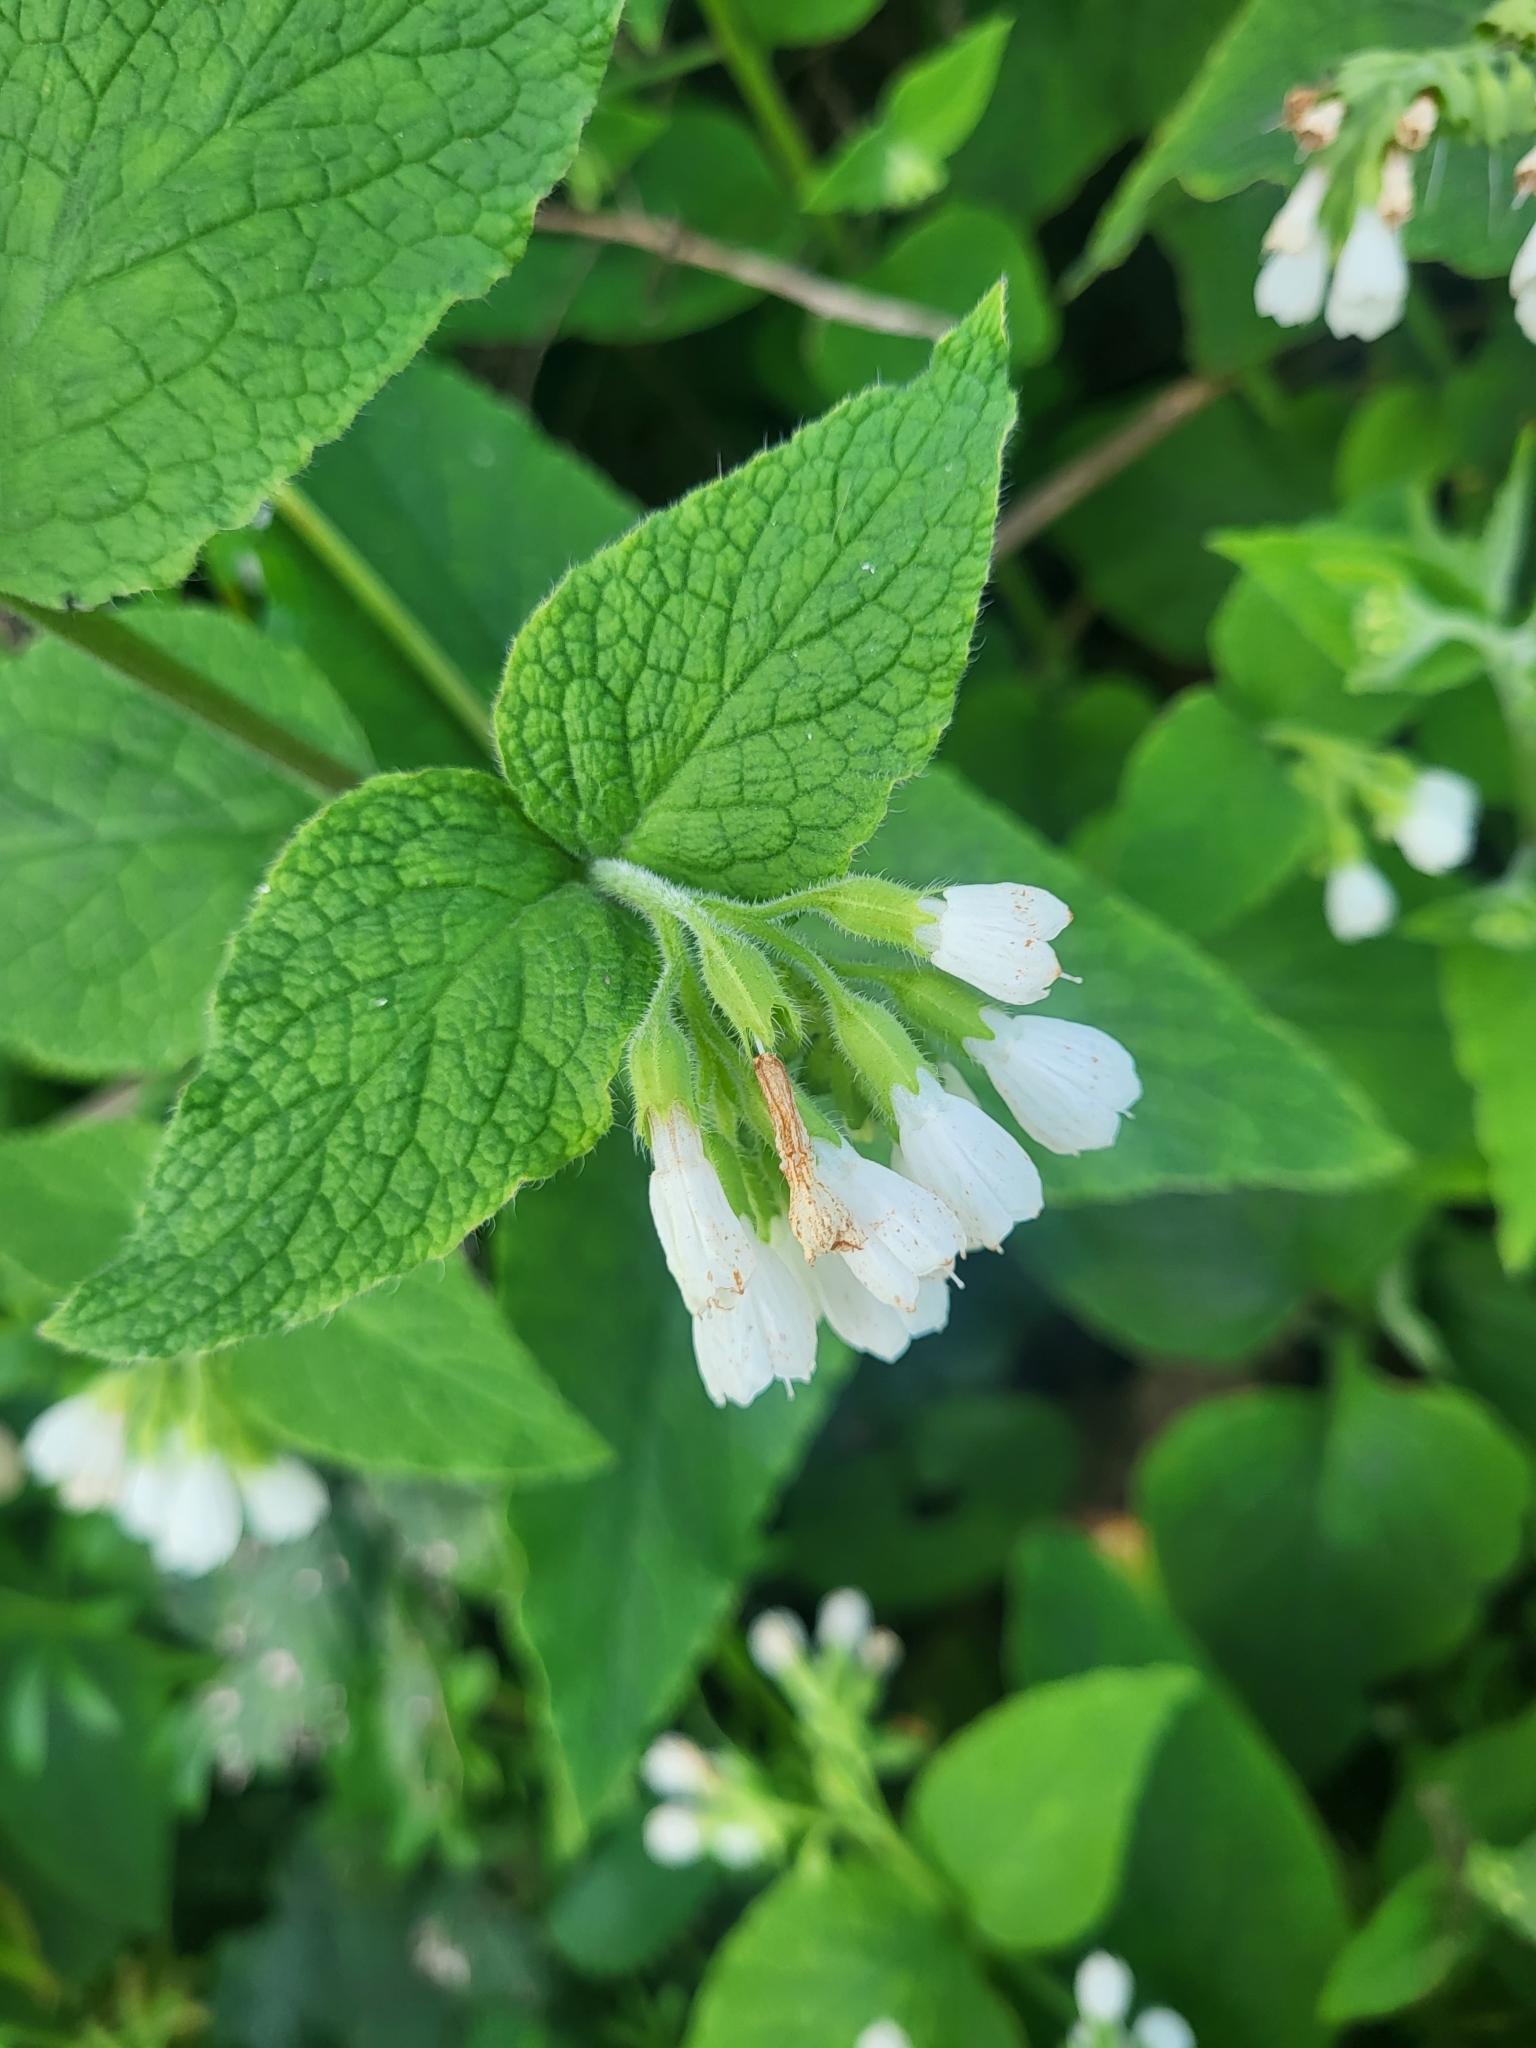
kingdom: Plantae
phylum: Tracheophyta
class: Magnoliopsida
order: Boraginales
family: Boraginaceae
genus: Symphytum
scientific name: Symphytum orientale
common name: White comfrey
